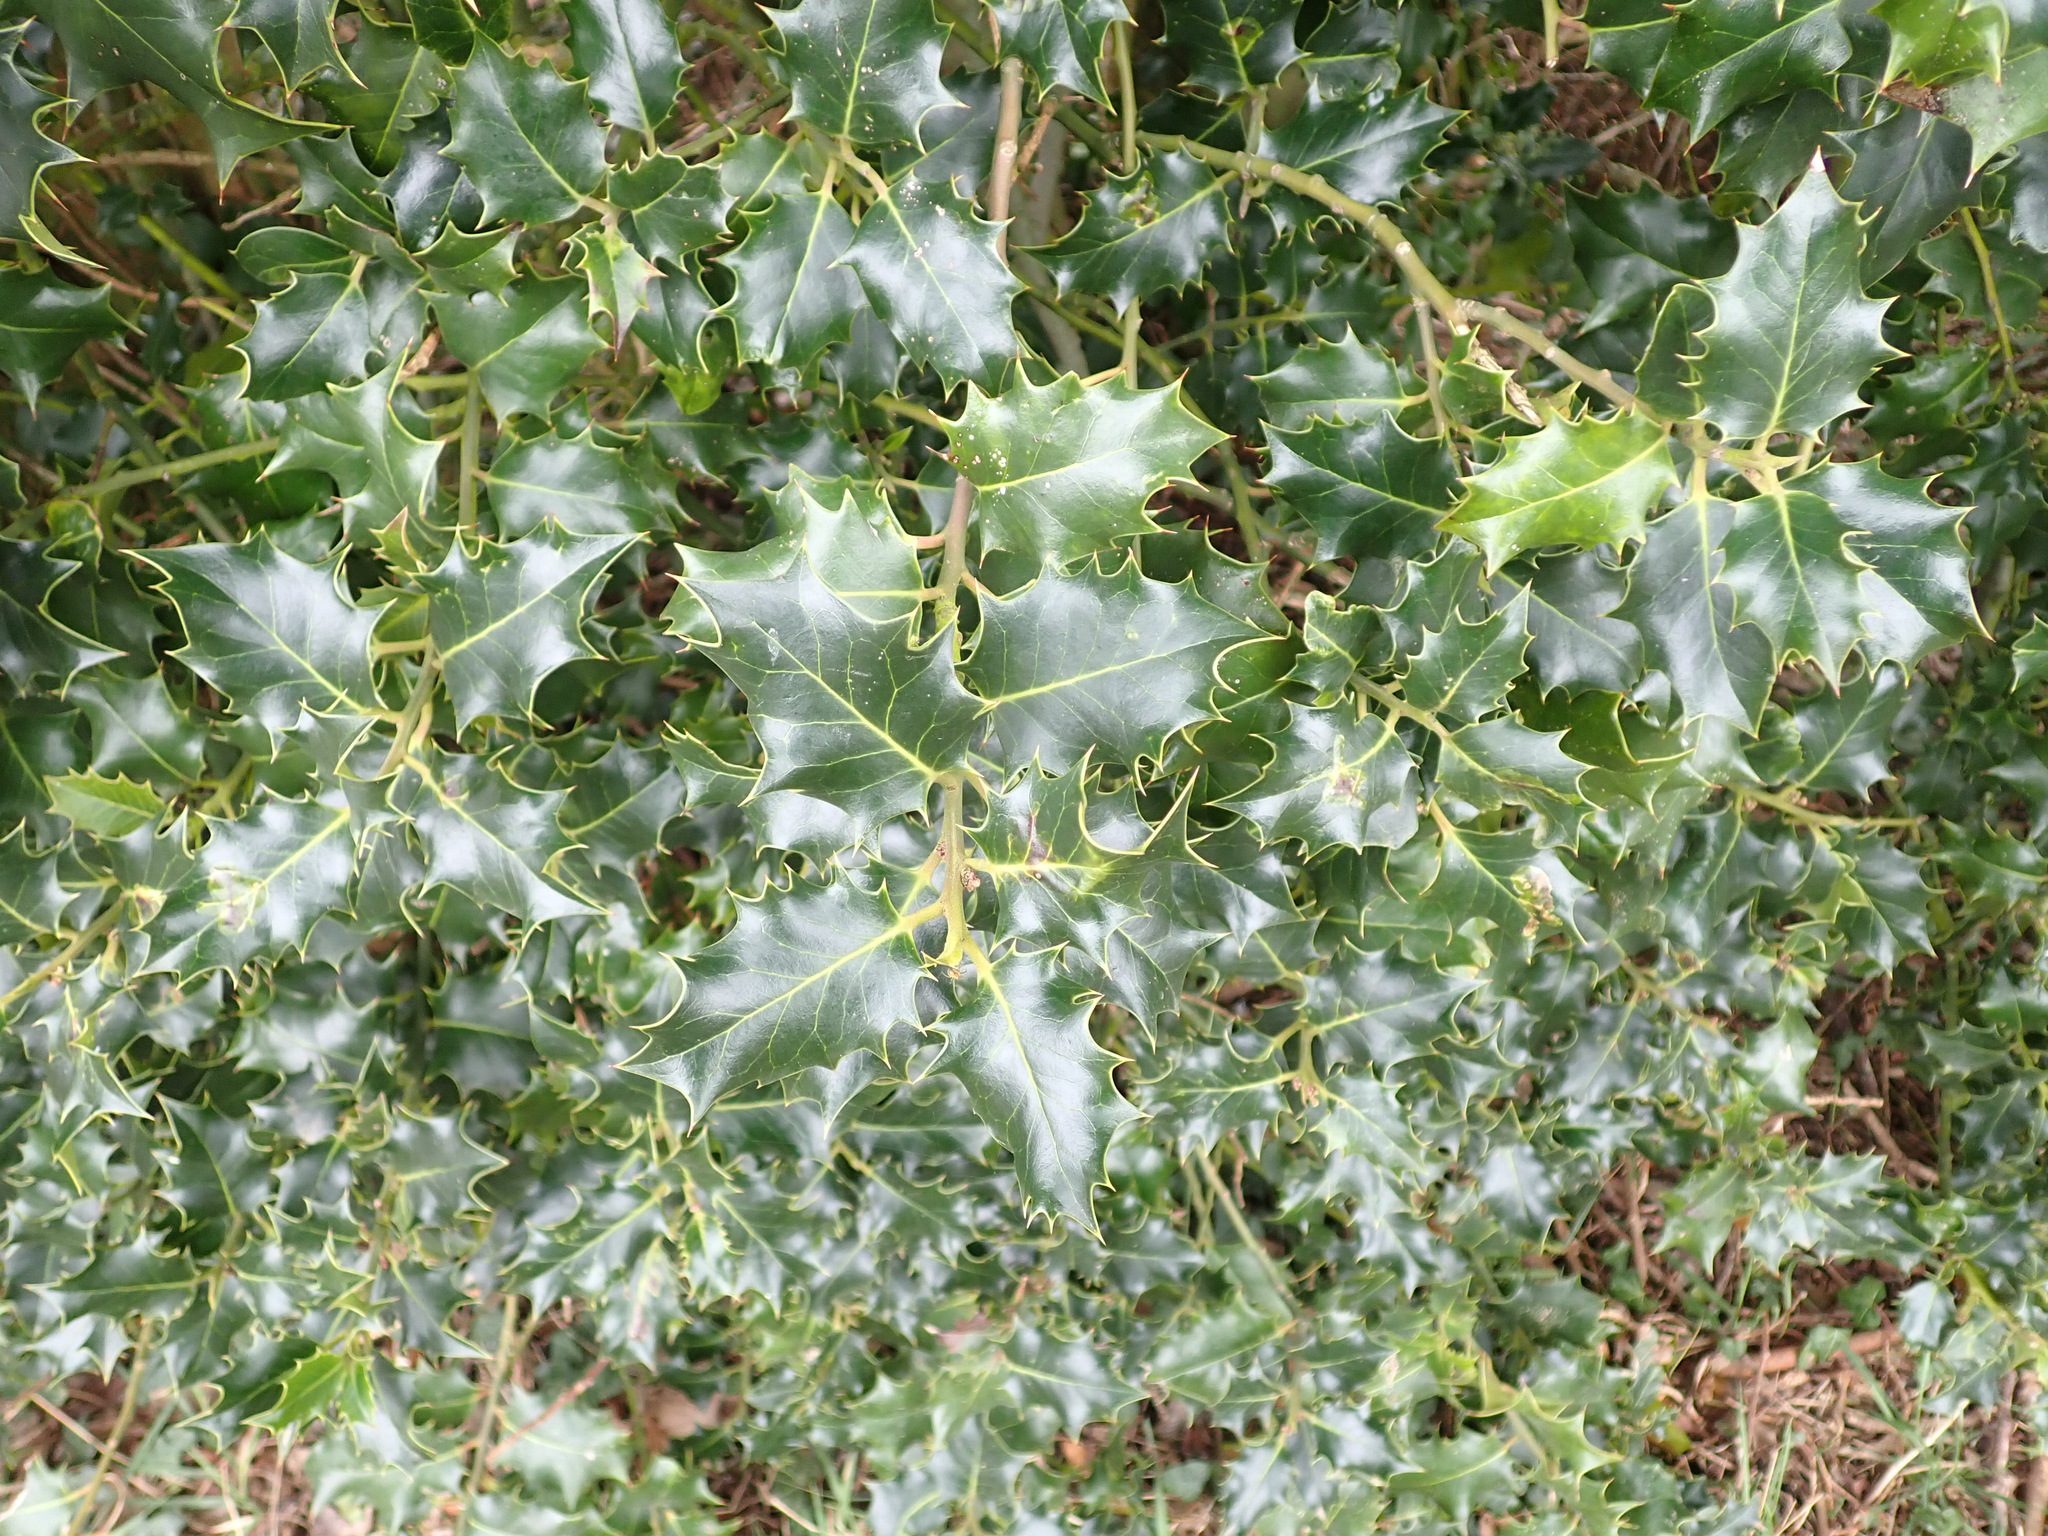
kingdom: Plantae
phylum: Tracheophyta
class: Magnoliopsida
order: Aquifoliales
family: Aquifoliaceae
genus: Ilex
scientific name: Ilex aquifolium
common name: English holly
